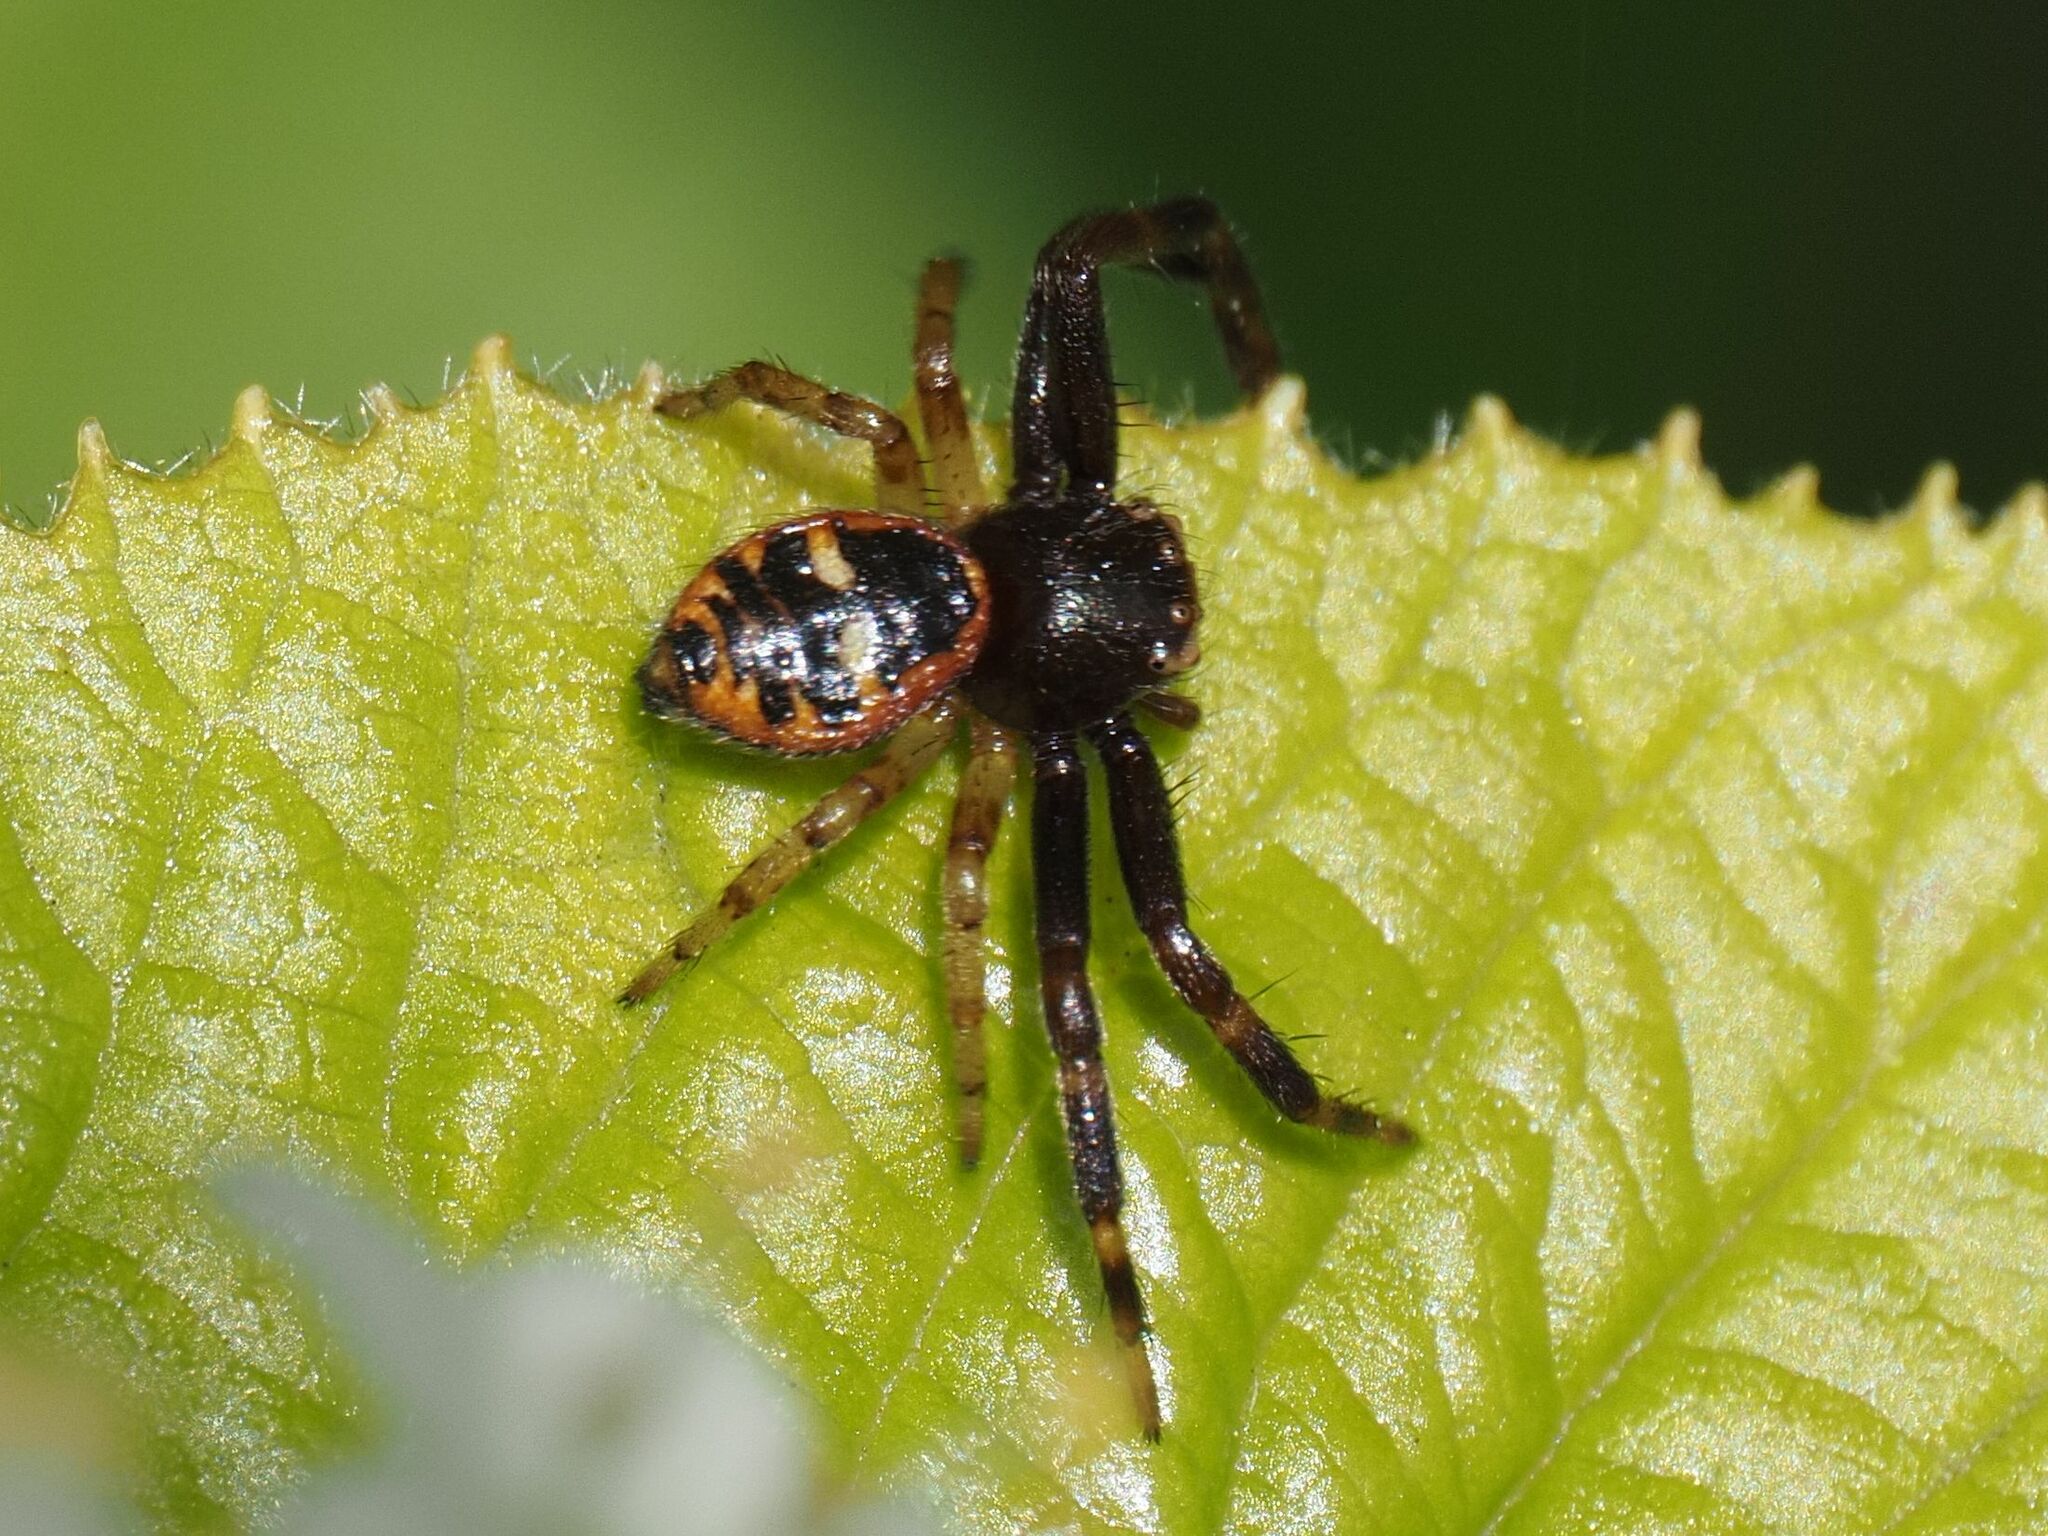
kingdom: Animalia
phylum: Arthropoda
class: Arachnida
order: Araneae
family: Thomisidae
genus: Synema
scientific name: Synema globosum
